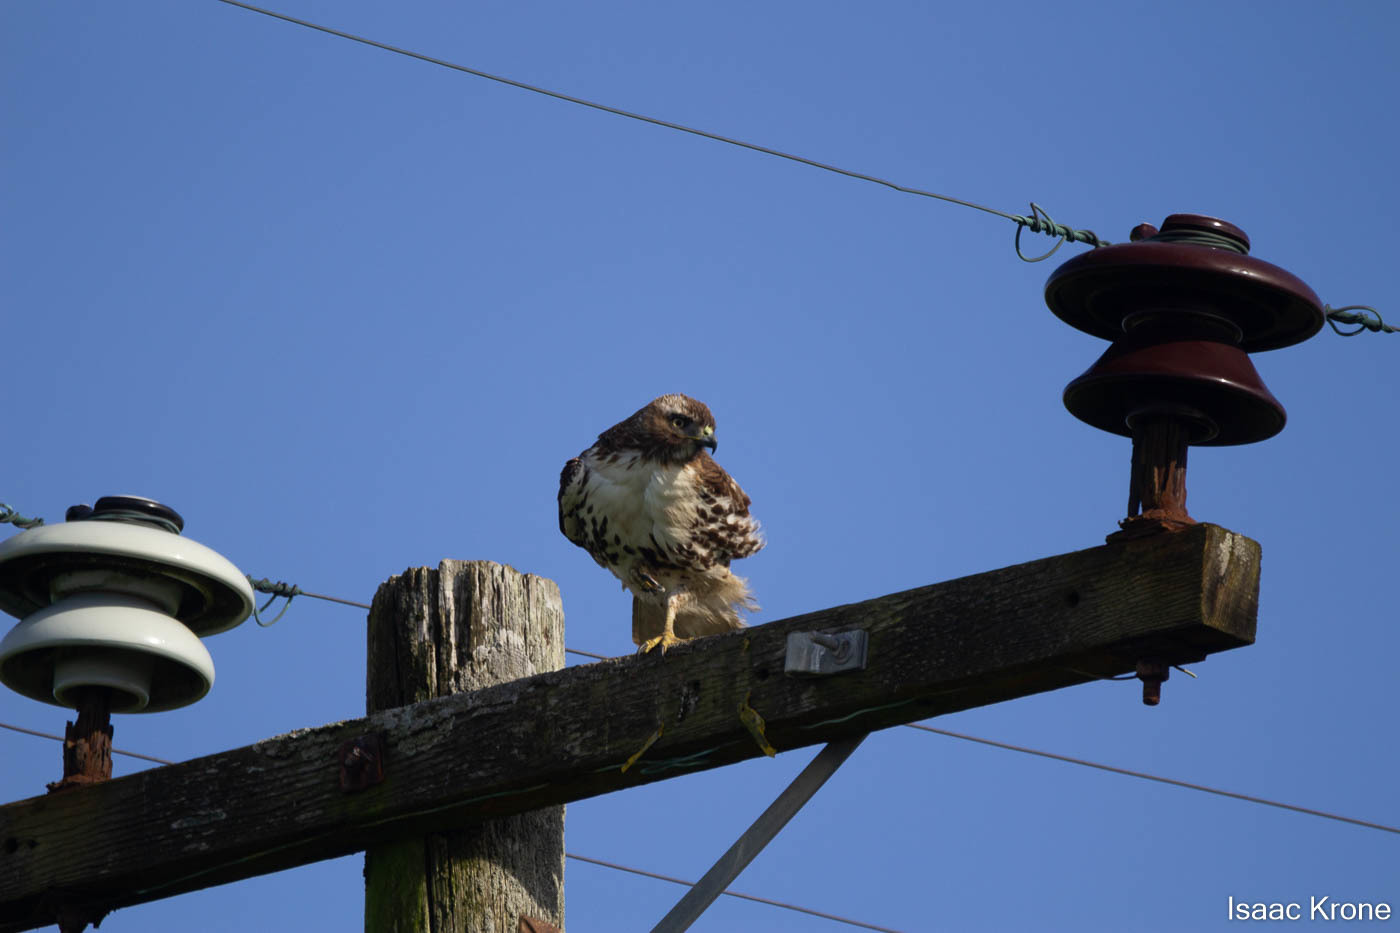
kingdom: Animalia
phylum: Chordata
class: Aves
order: Accipitriformes
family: Accipitridae
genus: Buteo
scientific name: Buteo jamaicensis
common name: Red-tailed hawk
